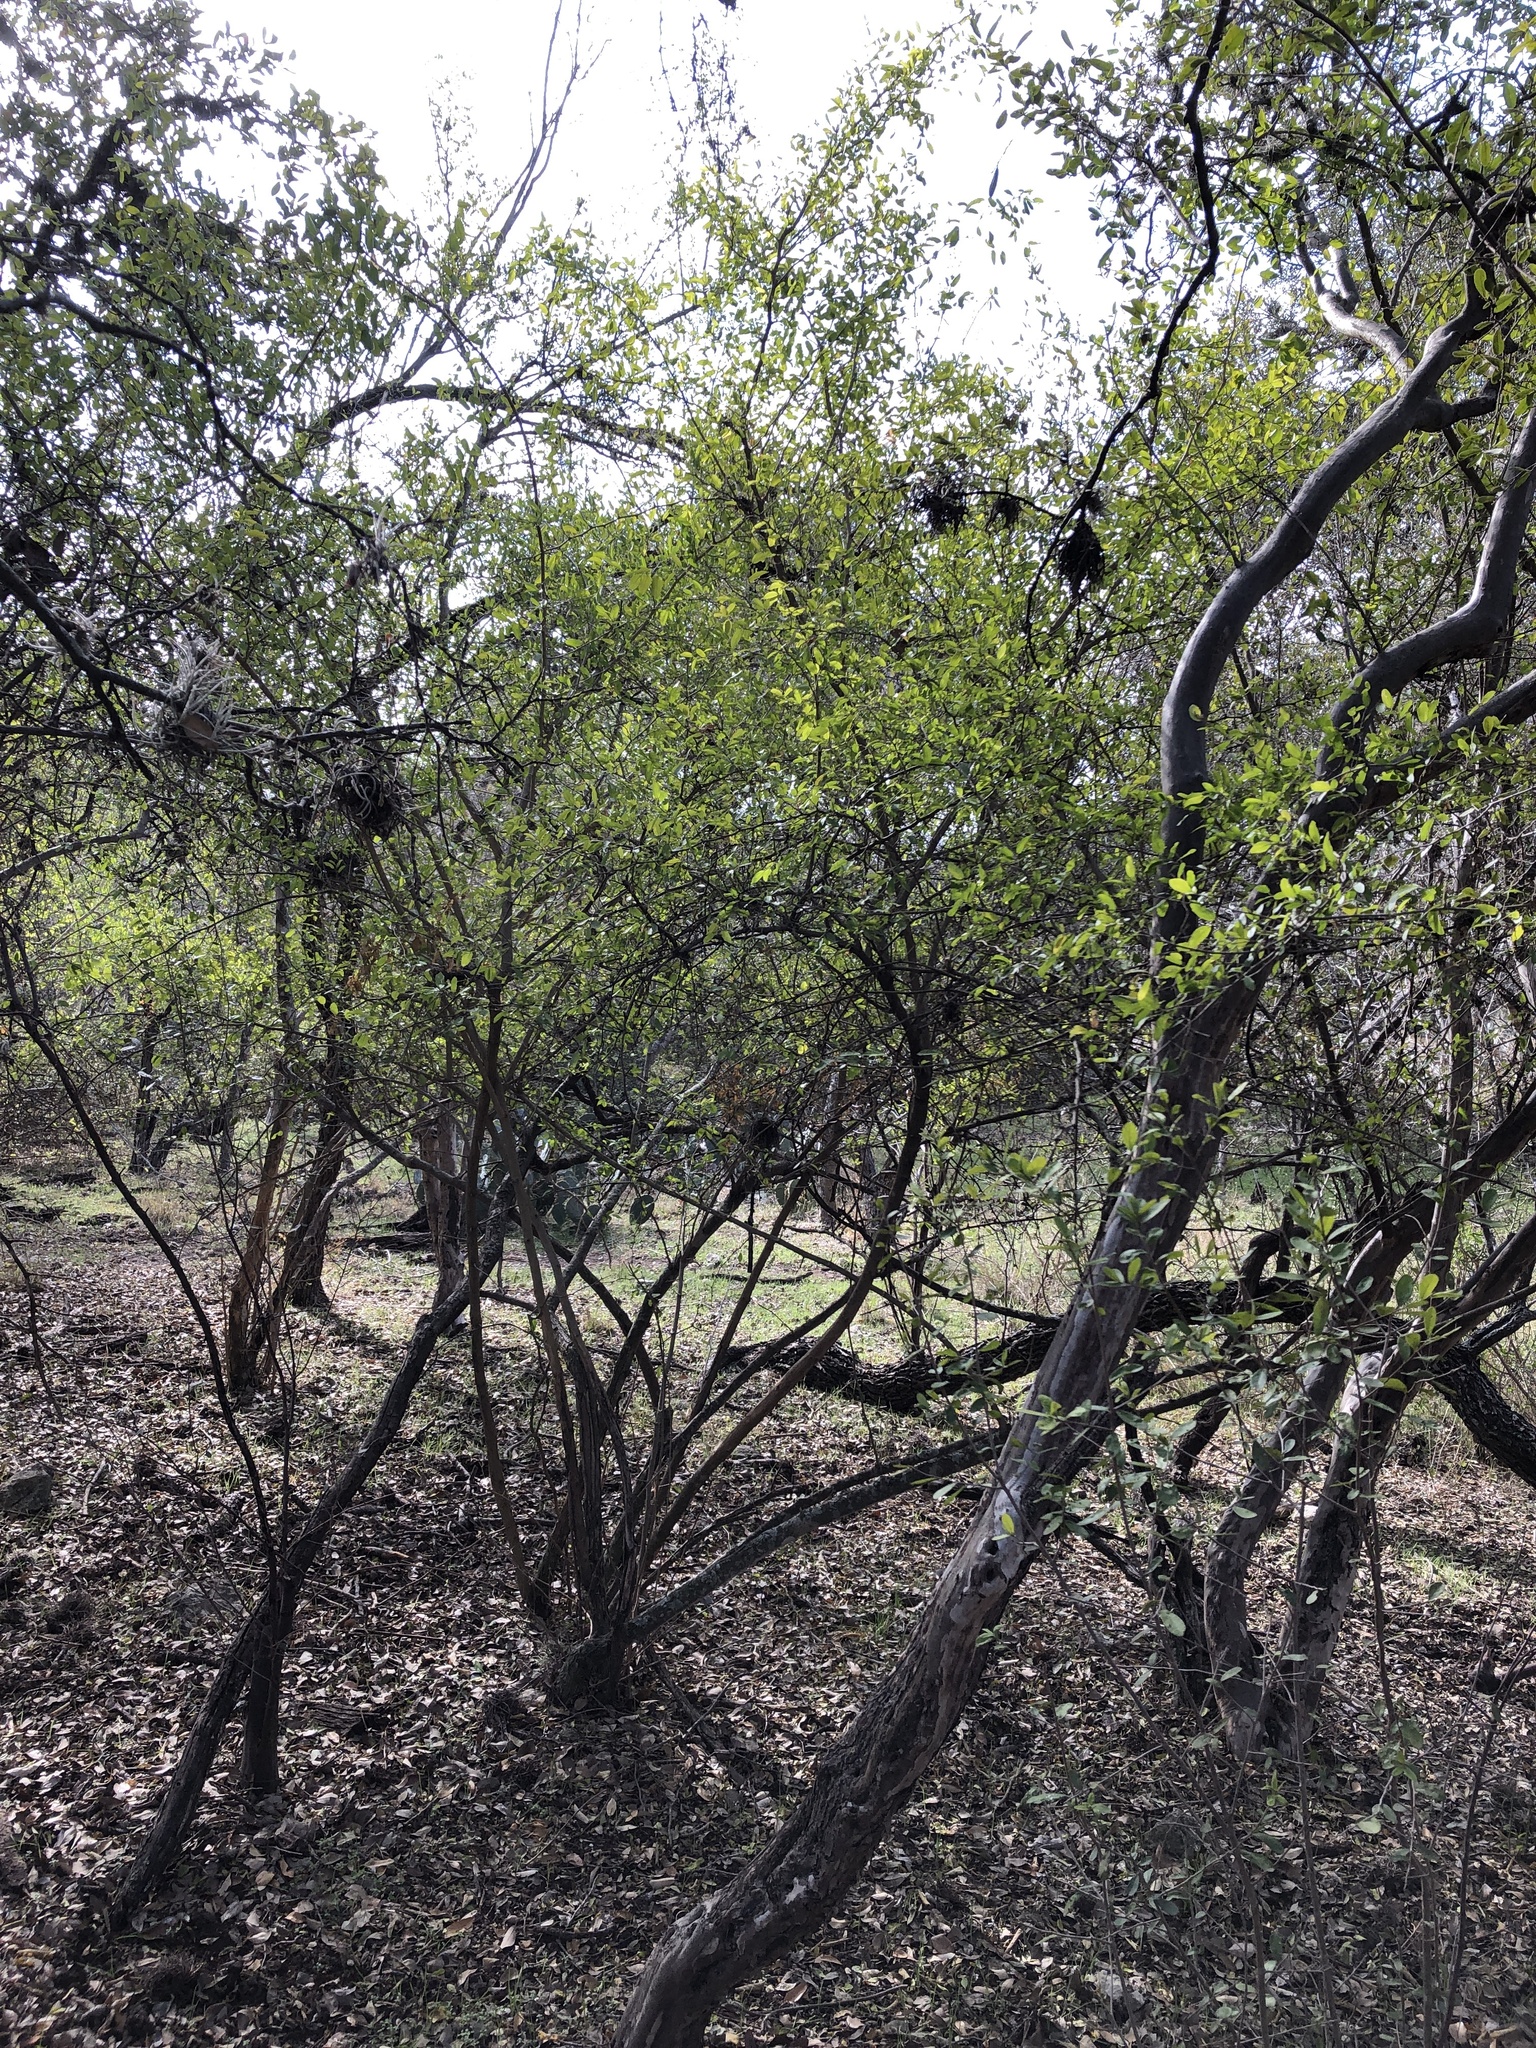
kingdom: Plantae
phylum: Tracheophyta
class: Magnoliopsida
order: Rosales
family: Cannabaceae
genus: Celtis
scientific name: Celtis pallida
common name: Desert hackberry
